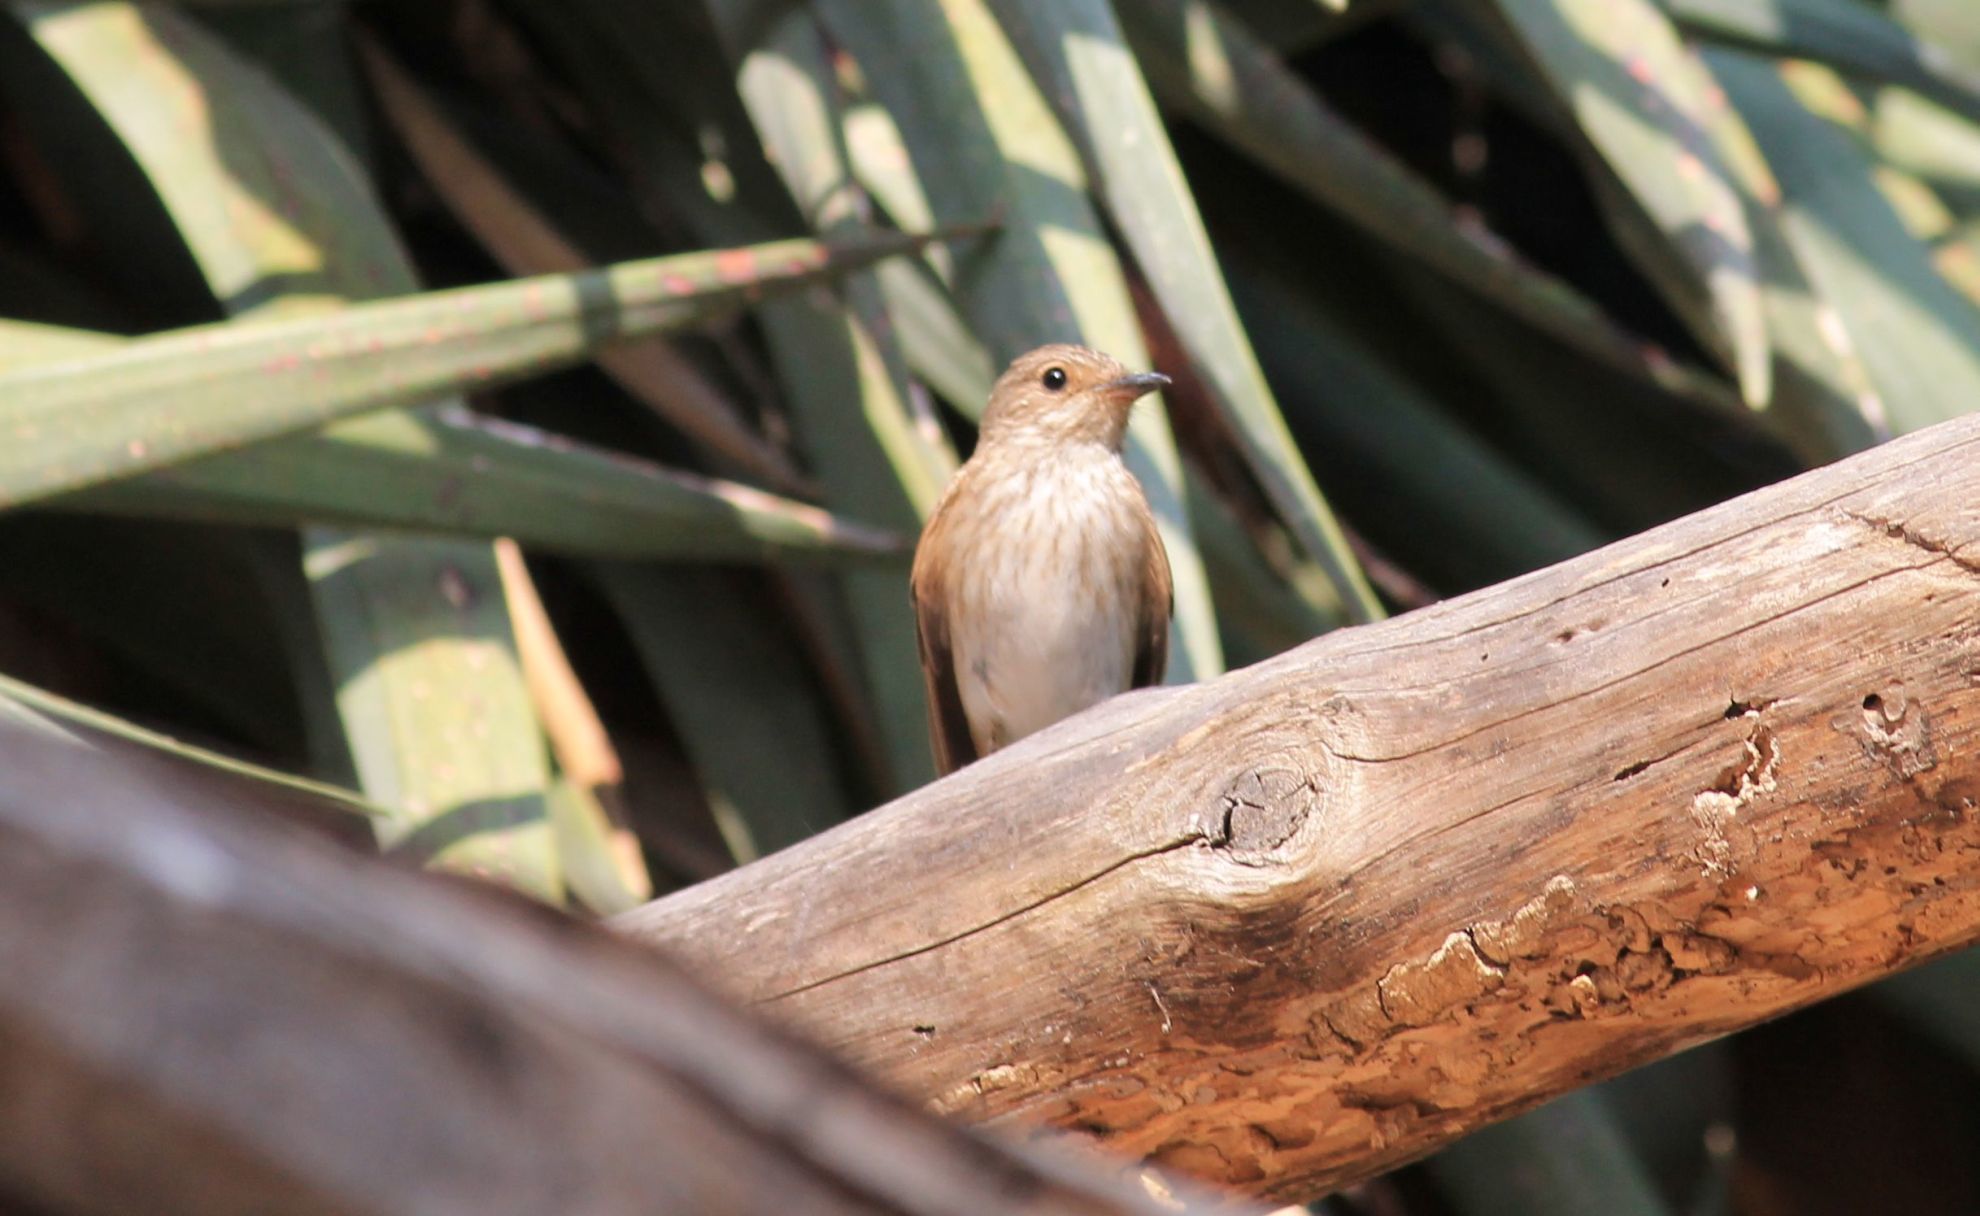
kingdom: Animalia
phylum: Chordata
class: Aves
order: Passeriformes
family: Muscicapidae
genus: Muscicapa
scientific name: Muscicapa striata
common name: Spotted flycatcher
